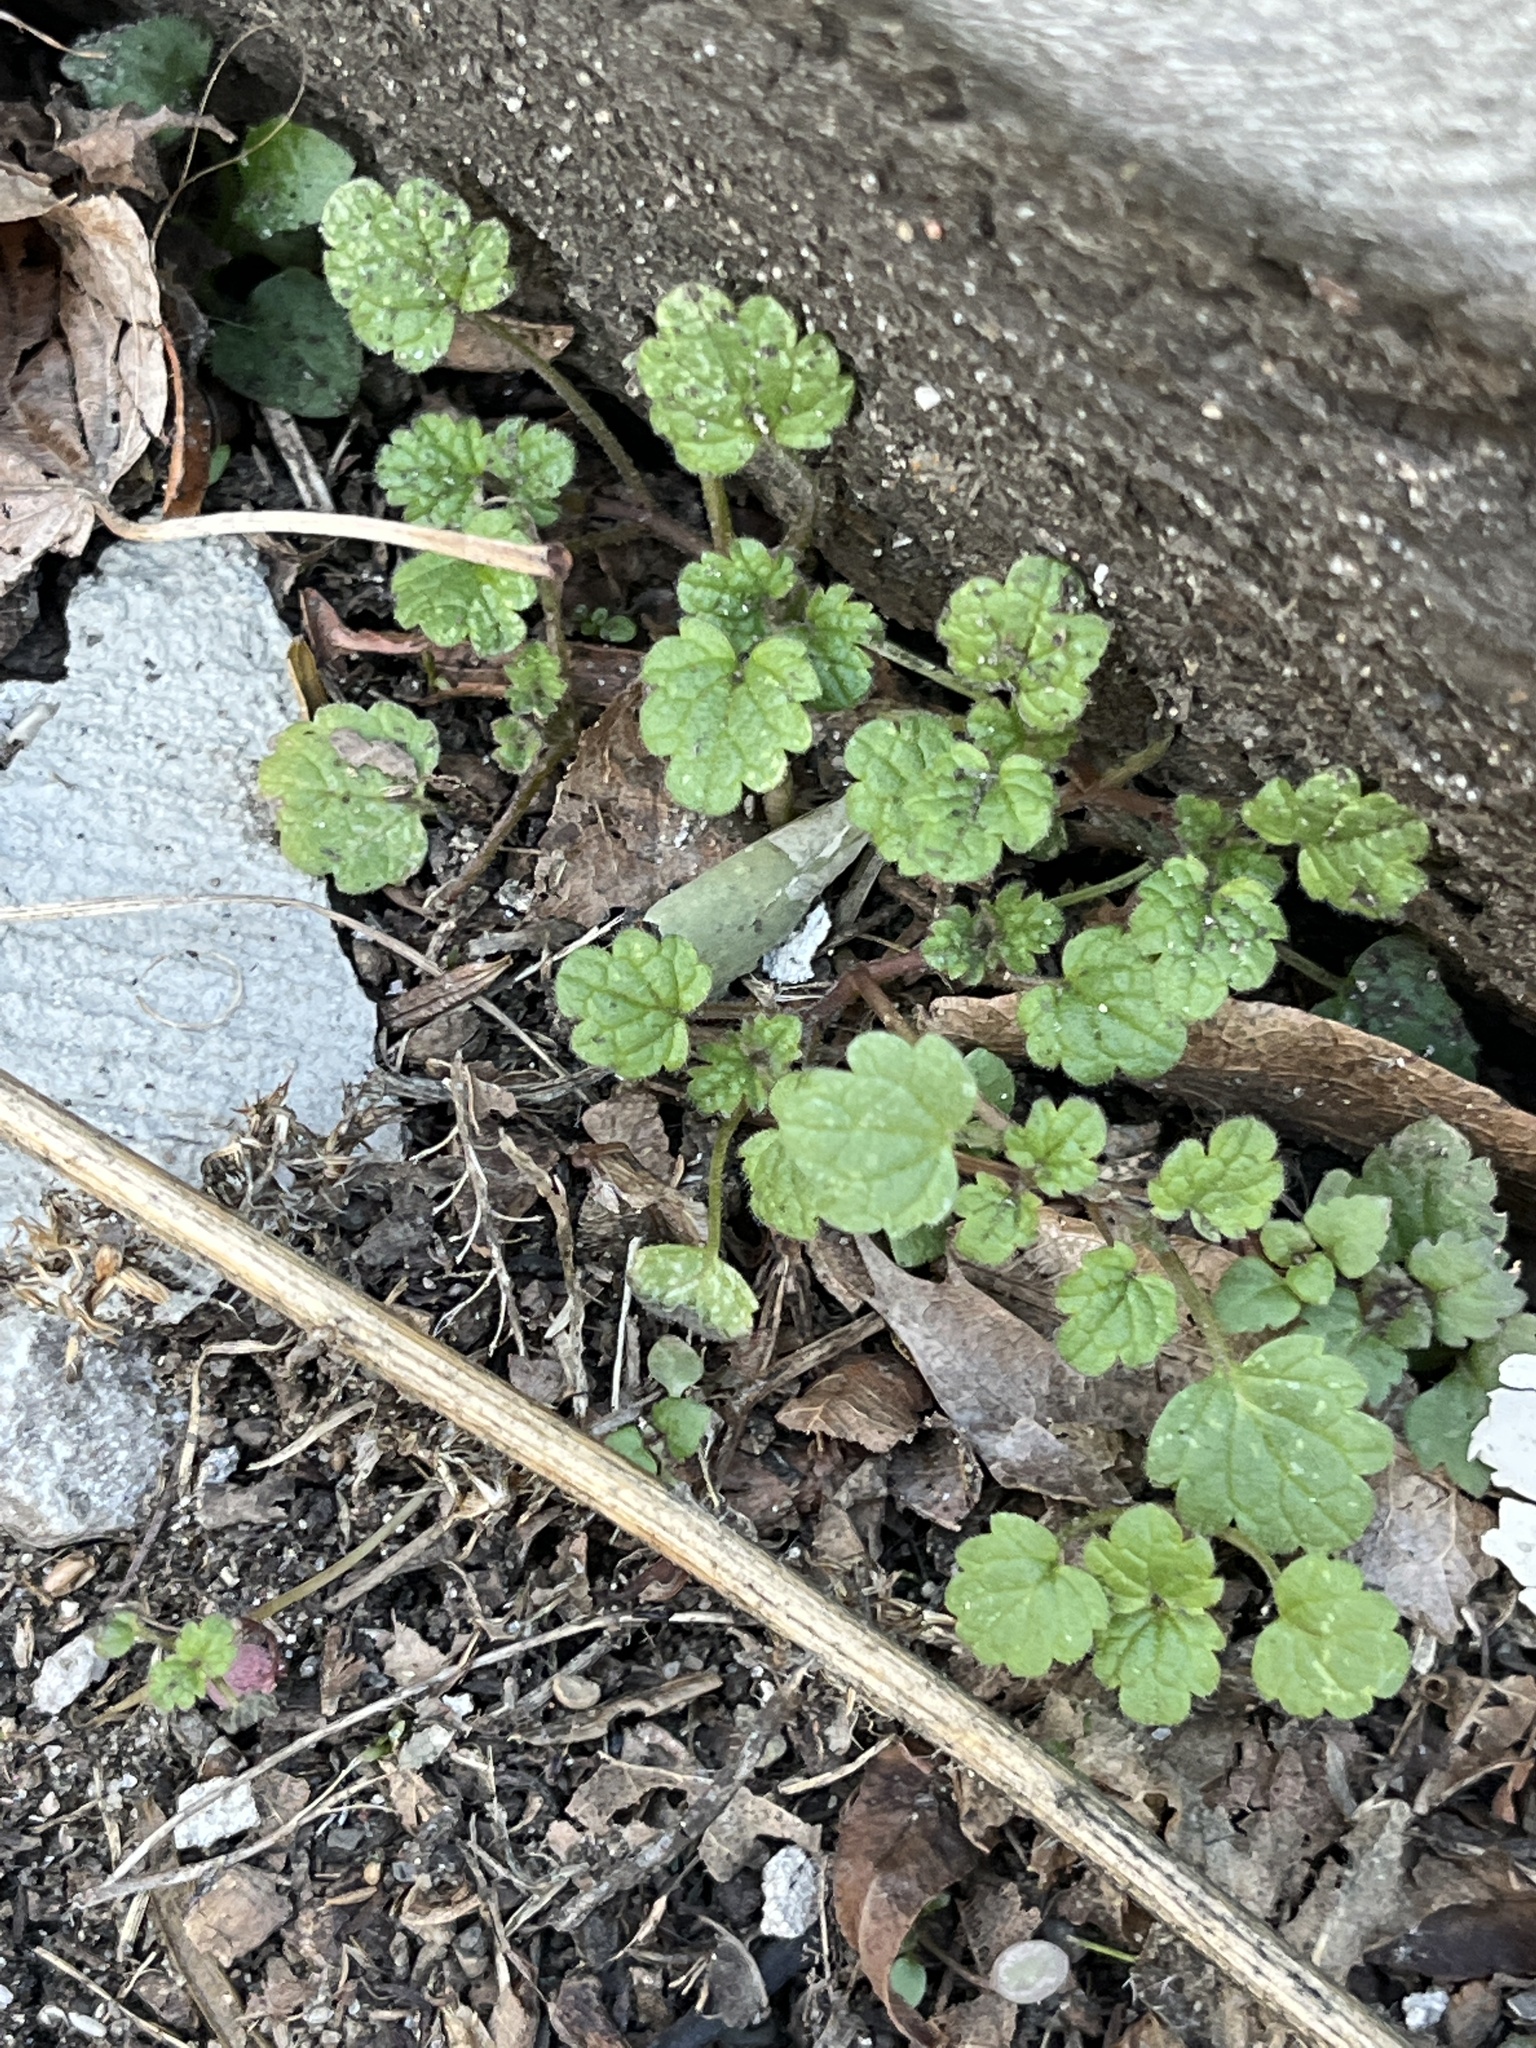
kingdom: Plantae
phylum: Tracheophyta
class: Magnoliopsida
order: Lamiales
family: Lamiaceae
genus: Glechoma
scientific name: Glechoma hederacea
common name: Ground ivy
